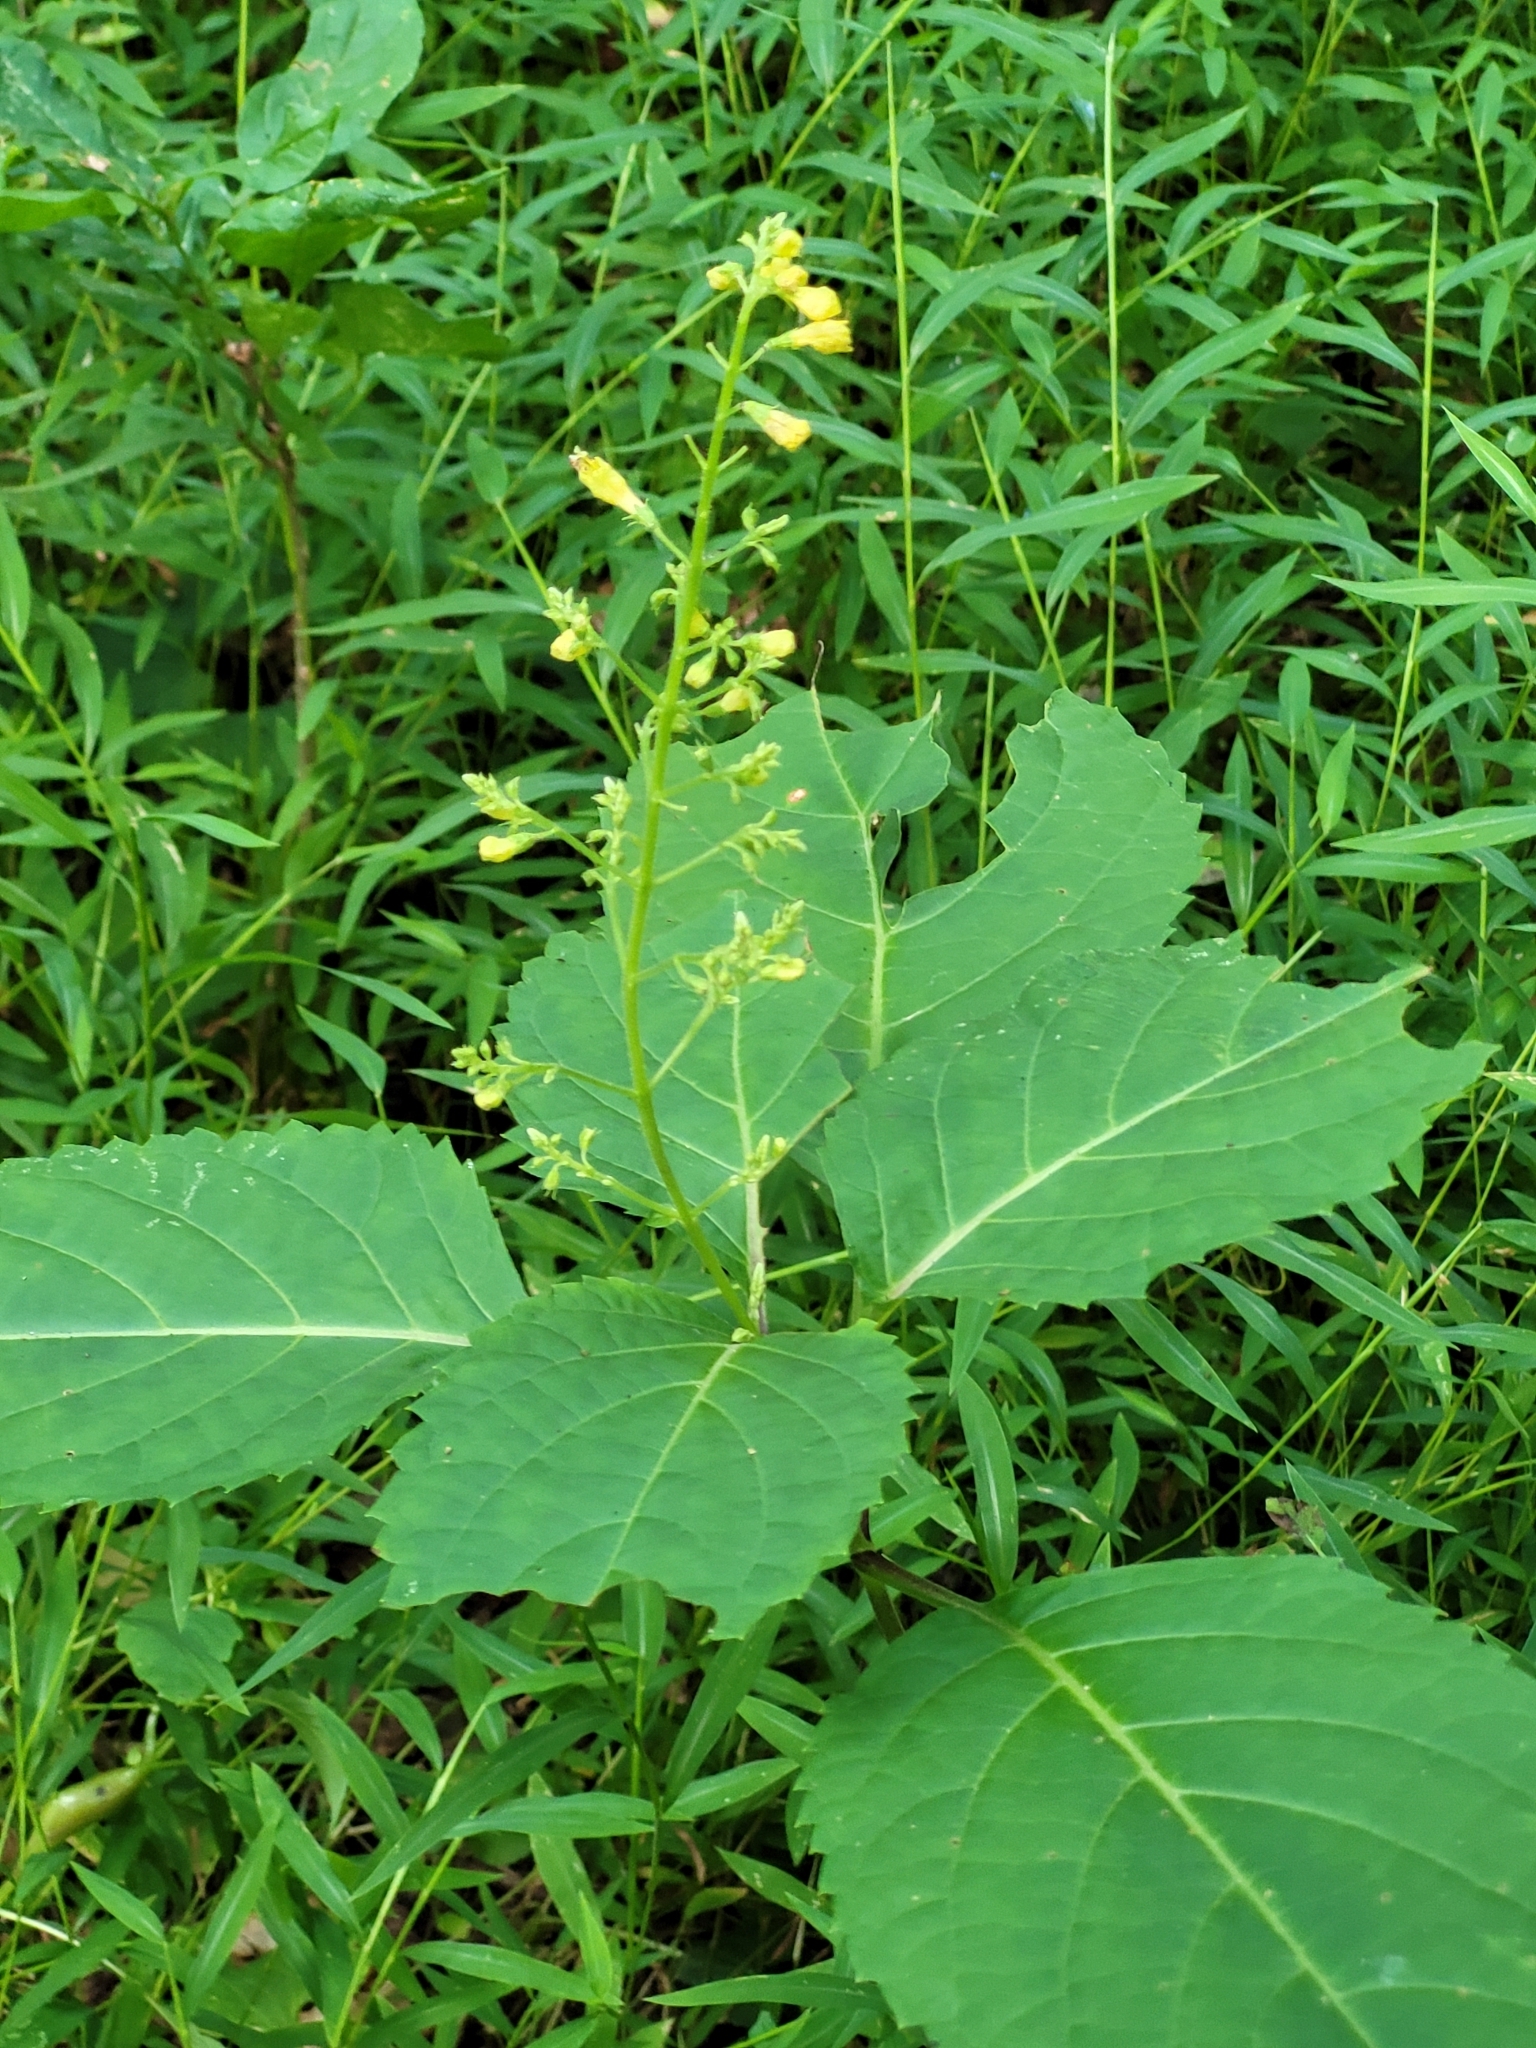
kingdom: Plantae
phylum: Tracheophyta
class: Magnoliopsida
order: Lamiales
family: Lamiaceae
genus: Collinsonia
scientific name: Collinsonia canadensis
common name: Northern horsebalm
